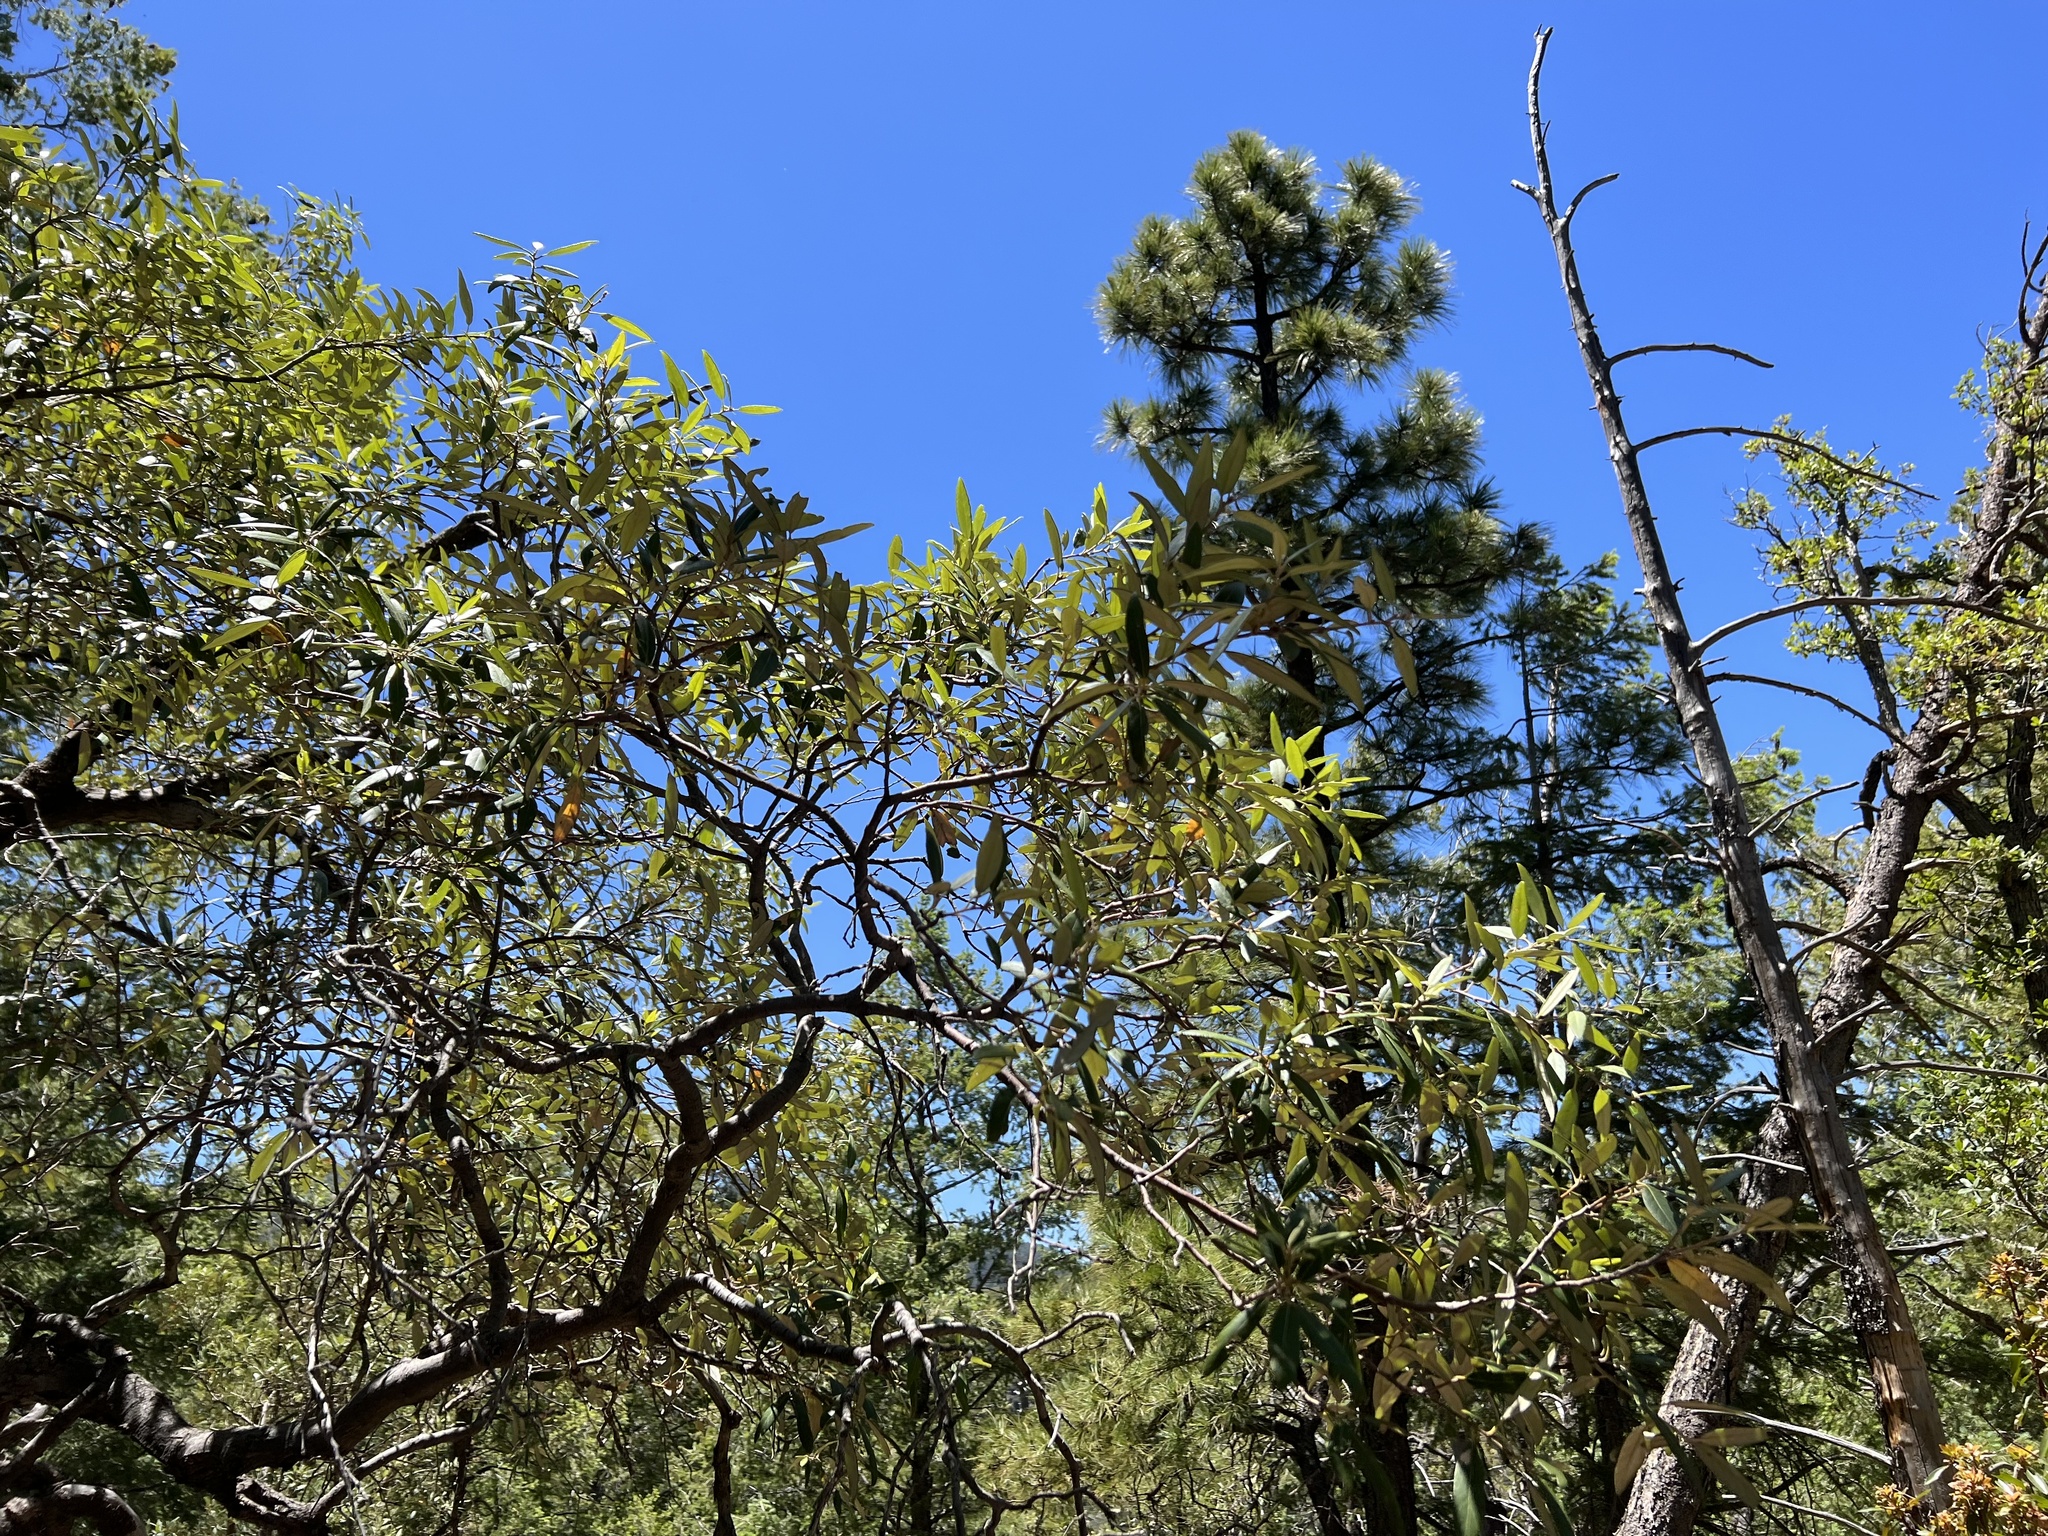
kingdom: Plantae
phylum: Tracheophyta
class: Magnoliopsida
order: Fagales
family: Fagaceae
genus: Quercus
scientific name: Quercus hypoleucoides
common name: Silverleaf oak
